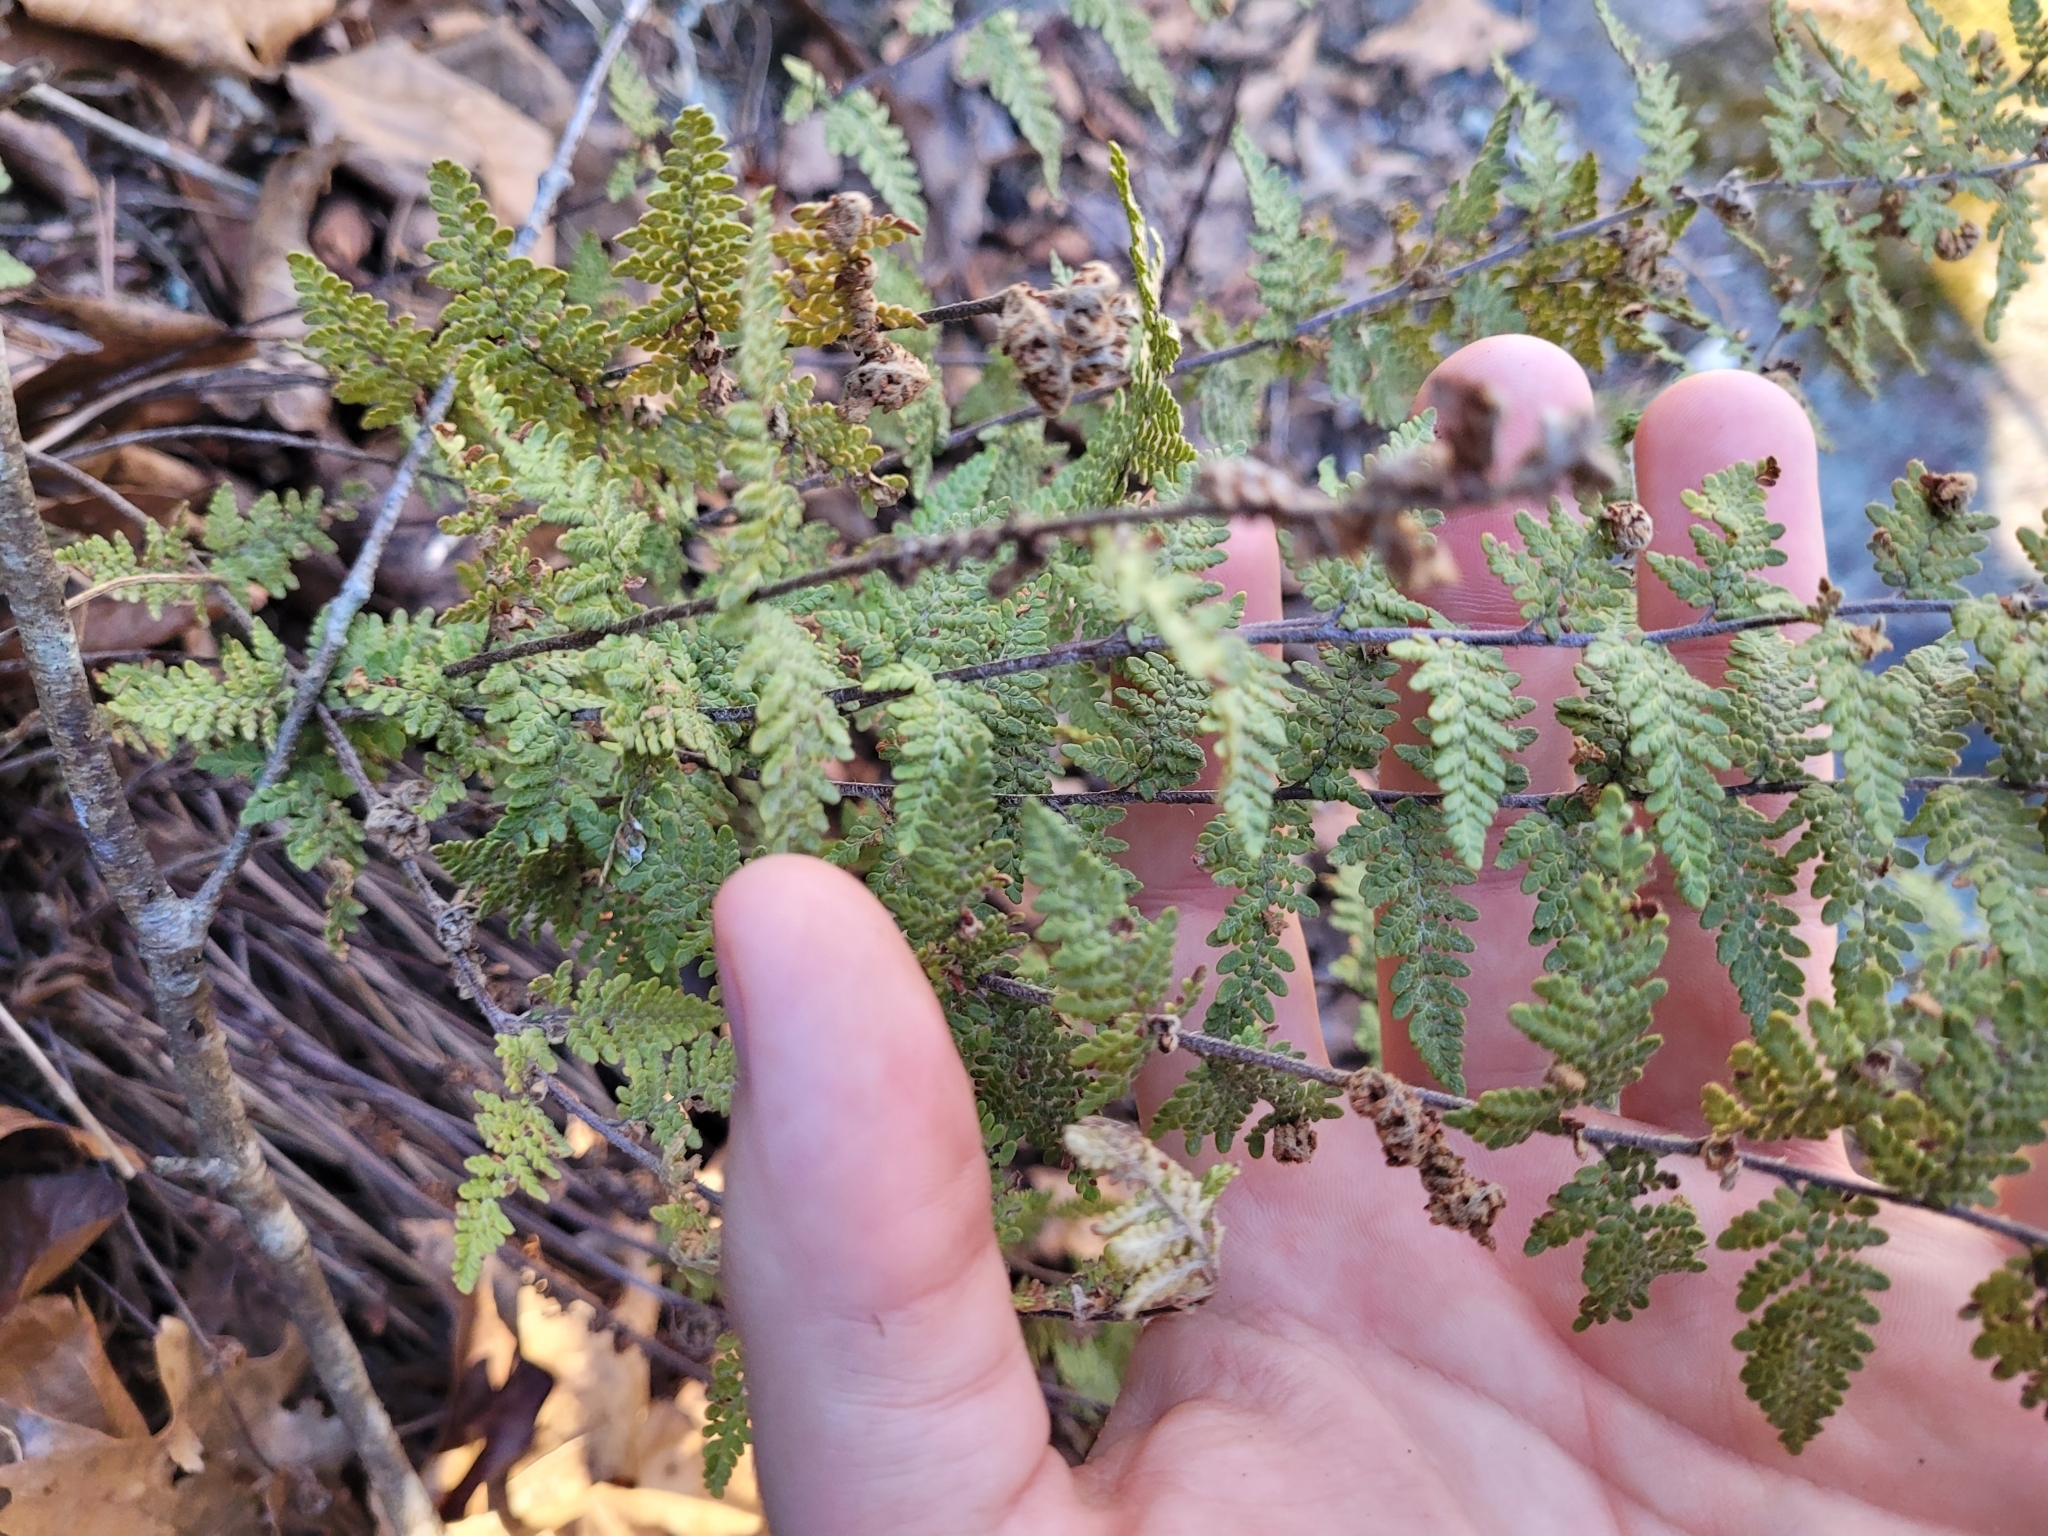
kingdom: Plantae
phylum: Tracheophyta
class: Polypodiopsida
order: Polypodiales
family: Pteridaceae
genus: Myriopteris
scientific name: Myriopteris tomentosa
